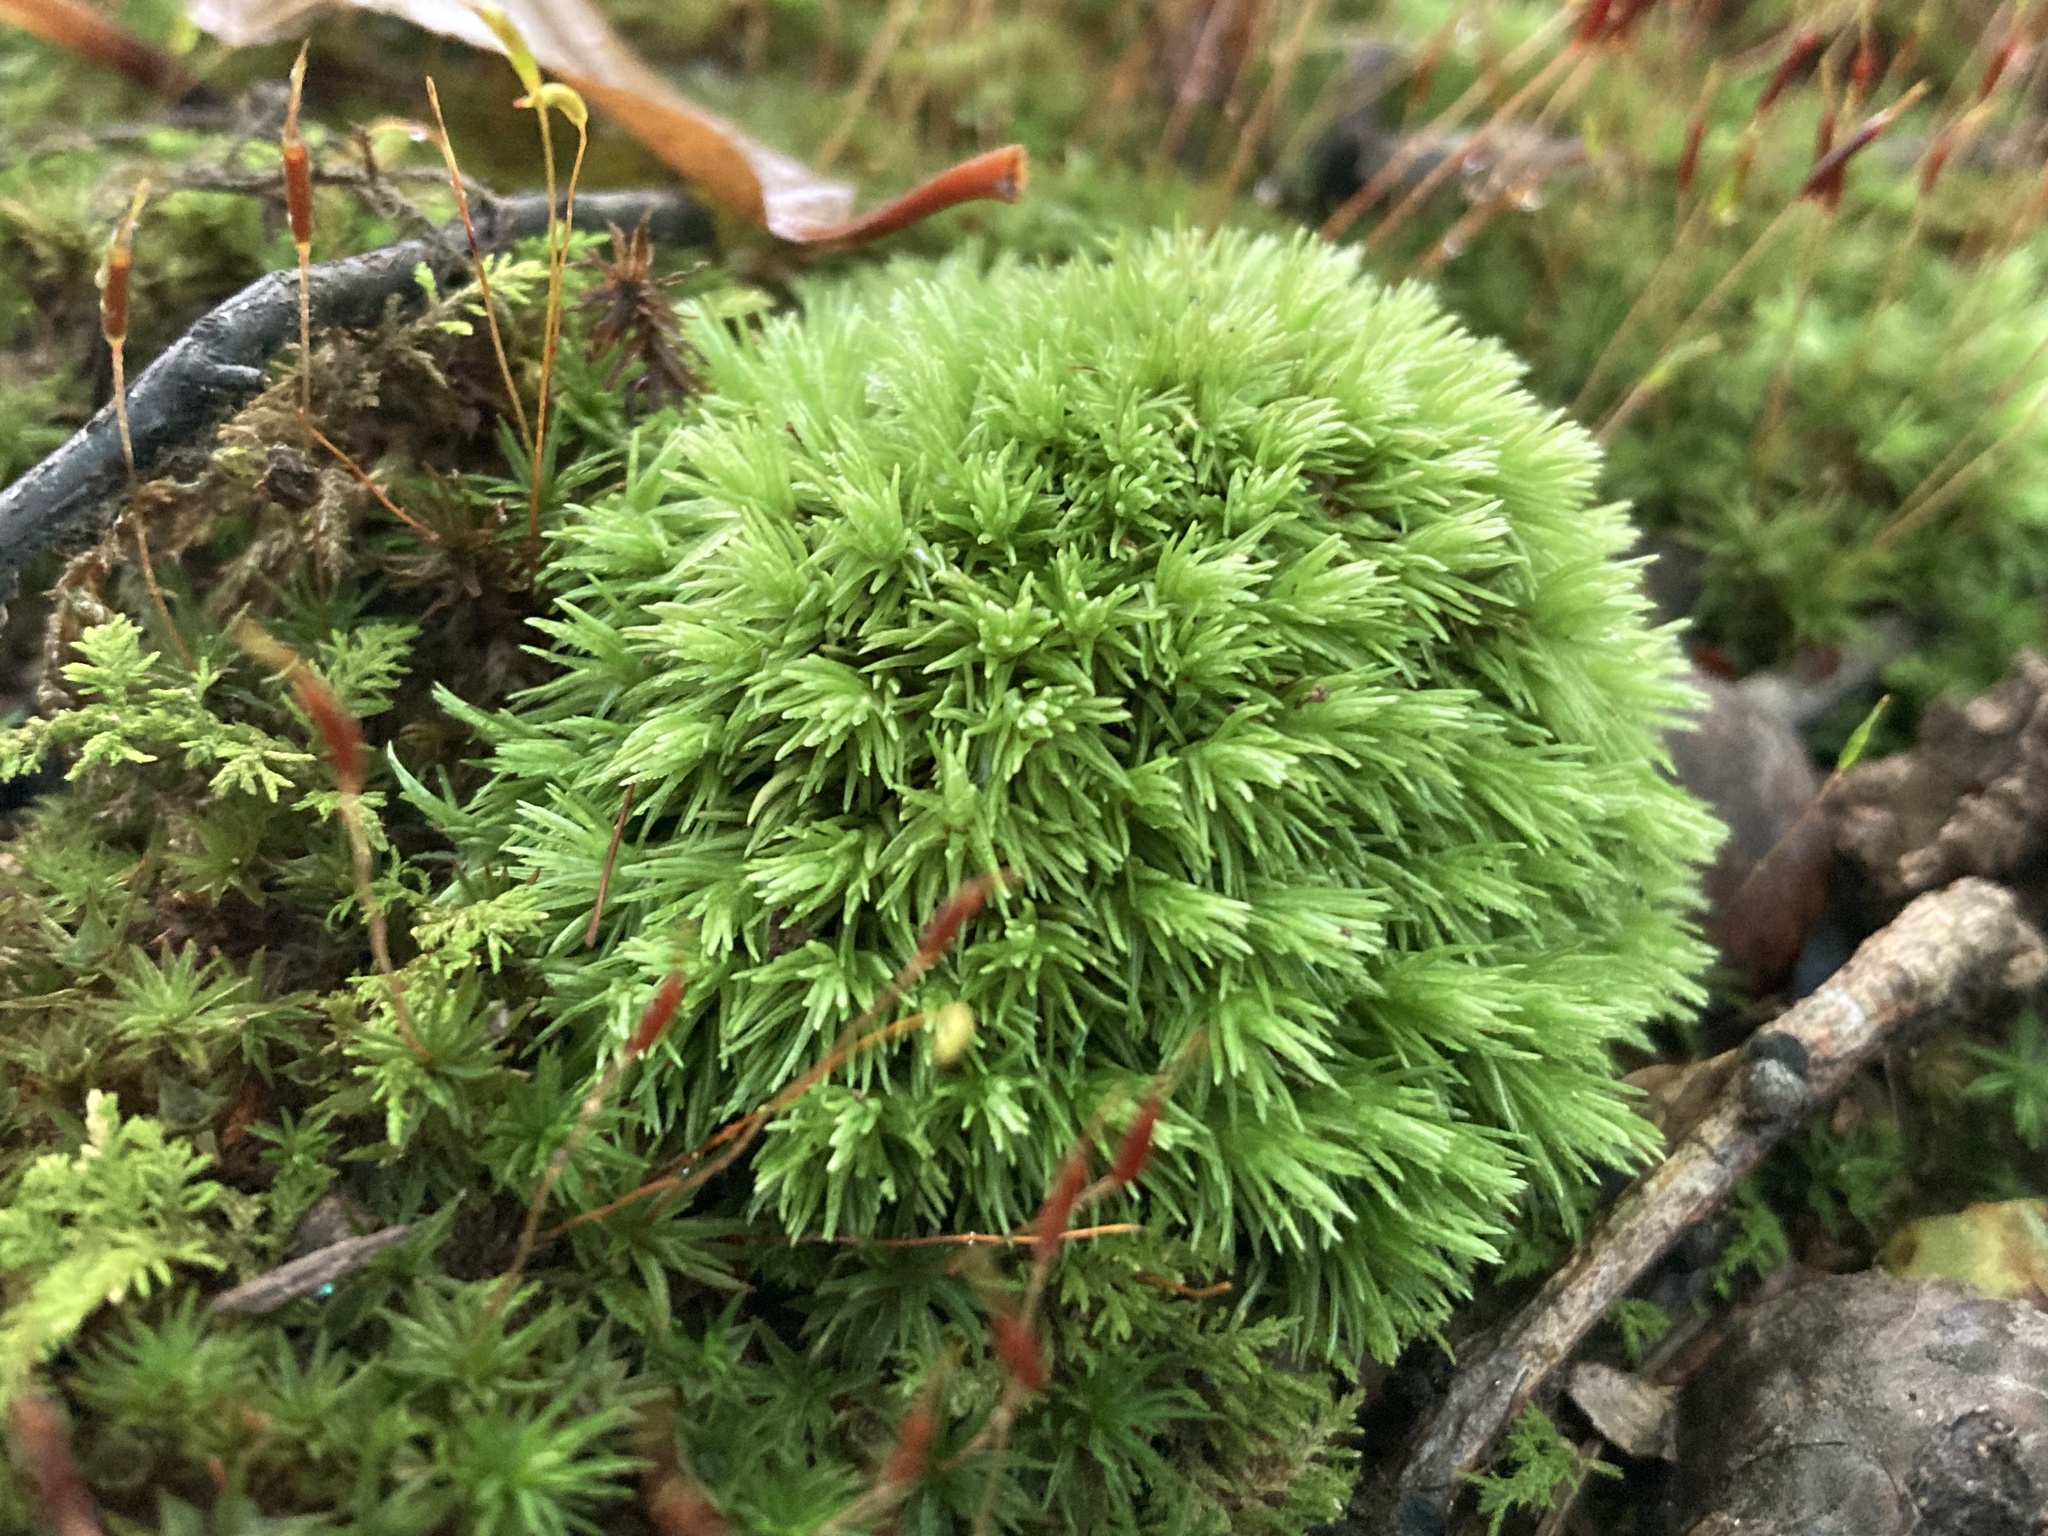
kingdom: Plantae
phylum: Bryophyta
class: Bryopsida
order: Dicranales
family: Leucobryaceae
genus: Leucobryum
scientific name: Leucobryum glaucum
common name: Large white-moss
